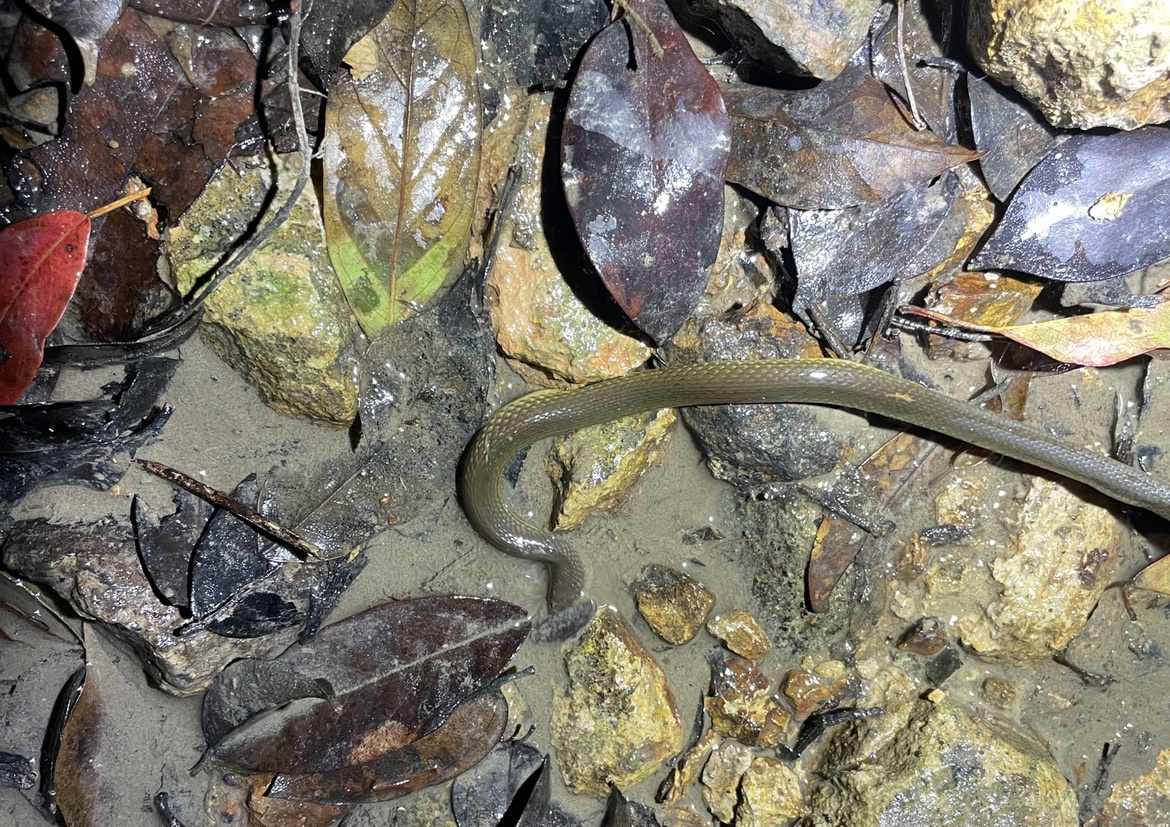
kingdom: Animalia
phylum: Chordata
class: Squamata
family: Colubridae
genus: Opisthotropis
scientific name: Opisthotropis andersonii
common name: Anderson's mountain keelback
